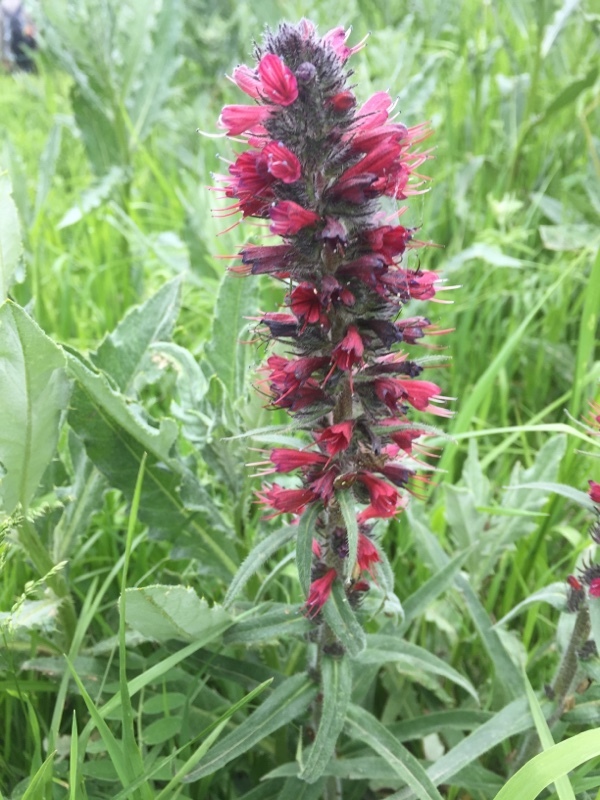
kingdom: Plantae
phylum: Tracheophyta
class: Magnoliopsida
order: Boraginales
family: Boraginaceae
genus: Pontechium
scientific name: Pontechium maculatum
